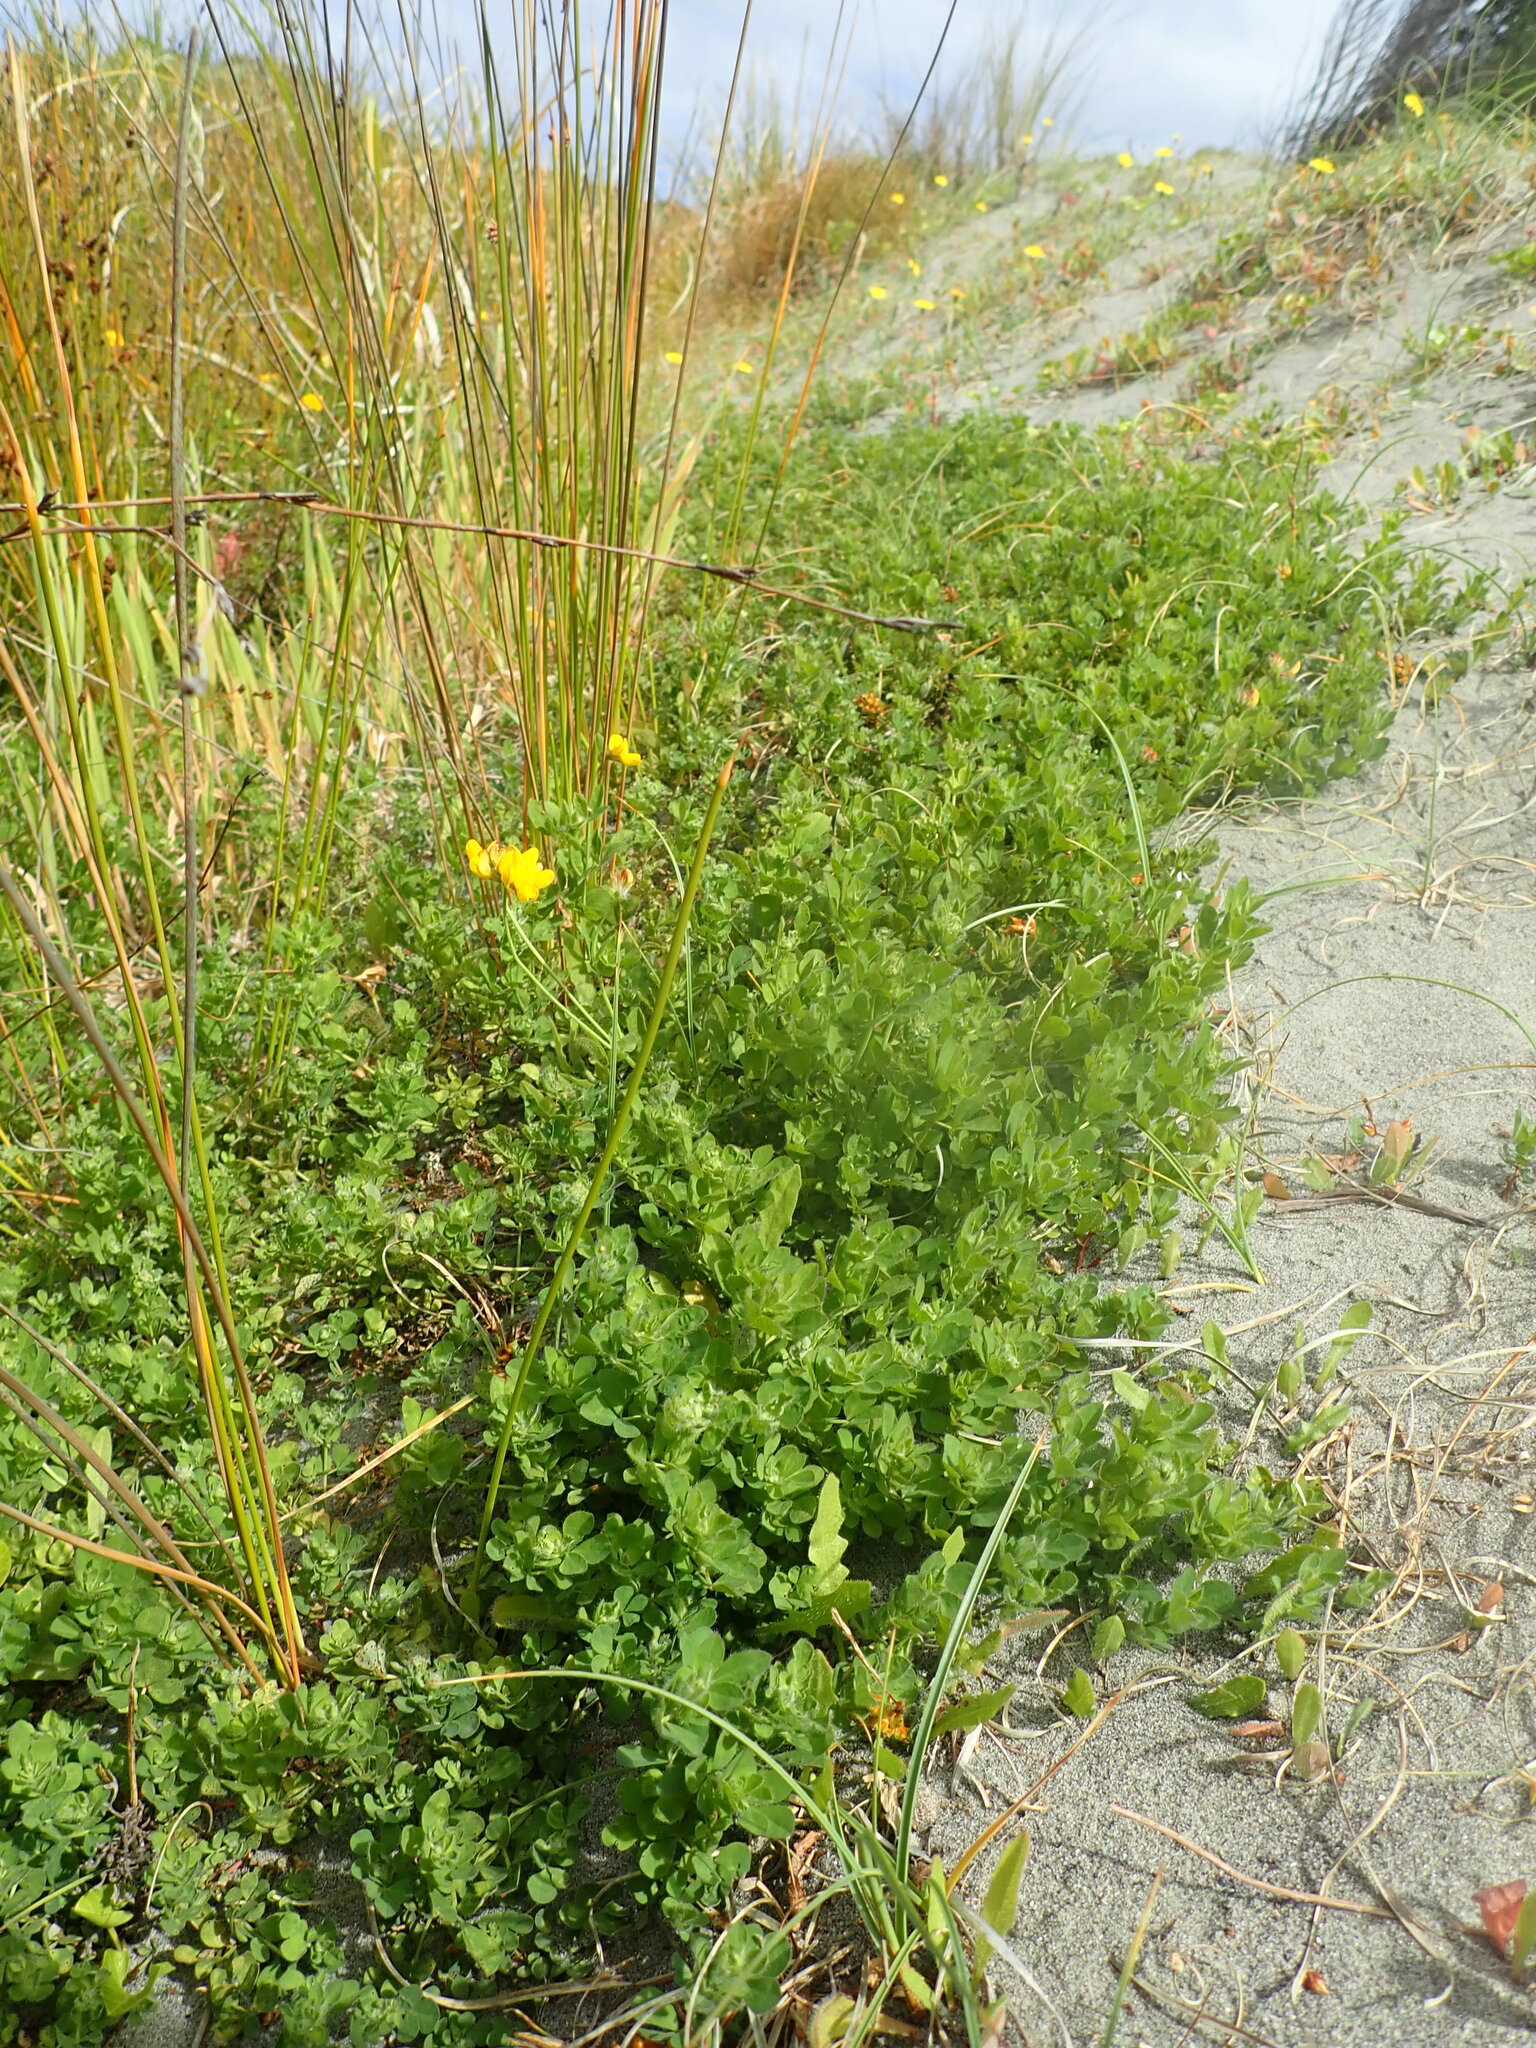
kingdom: Plantae
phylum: Tracheophyta
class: Magnoliopsida
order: Fabales
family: Fabaceae
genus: Lotus
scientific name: Lotus pedunculatus
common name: Greater birdsfoot-trefoil
